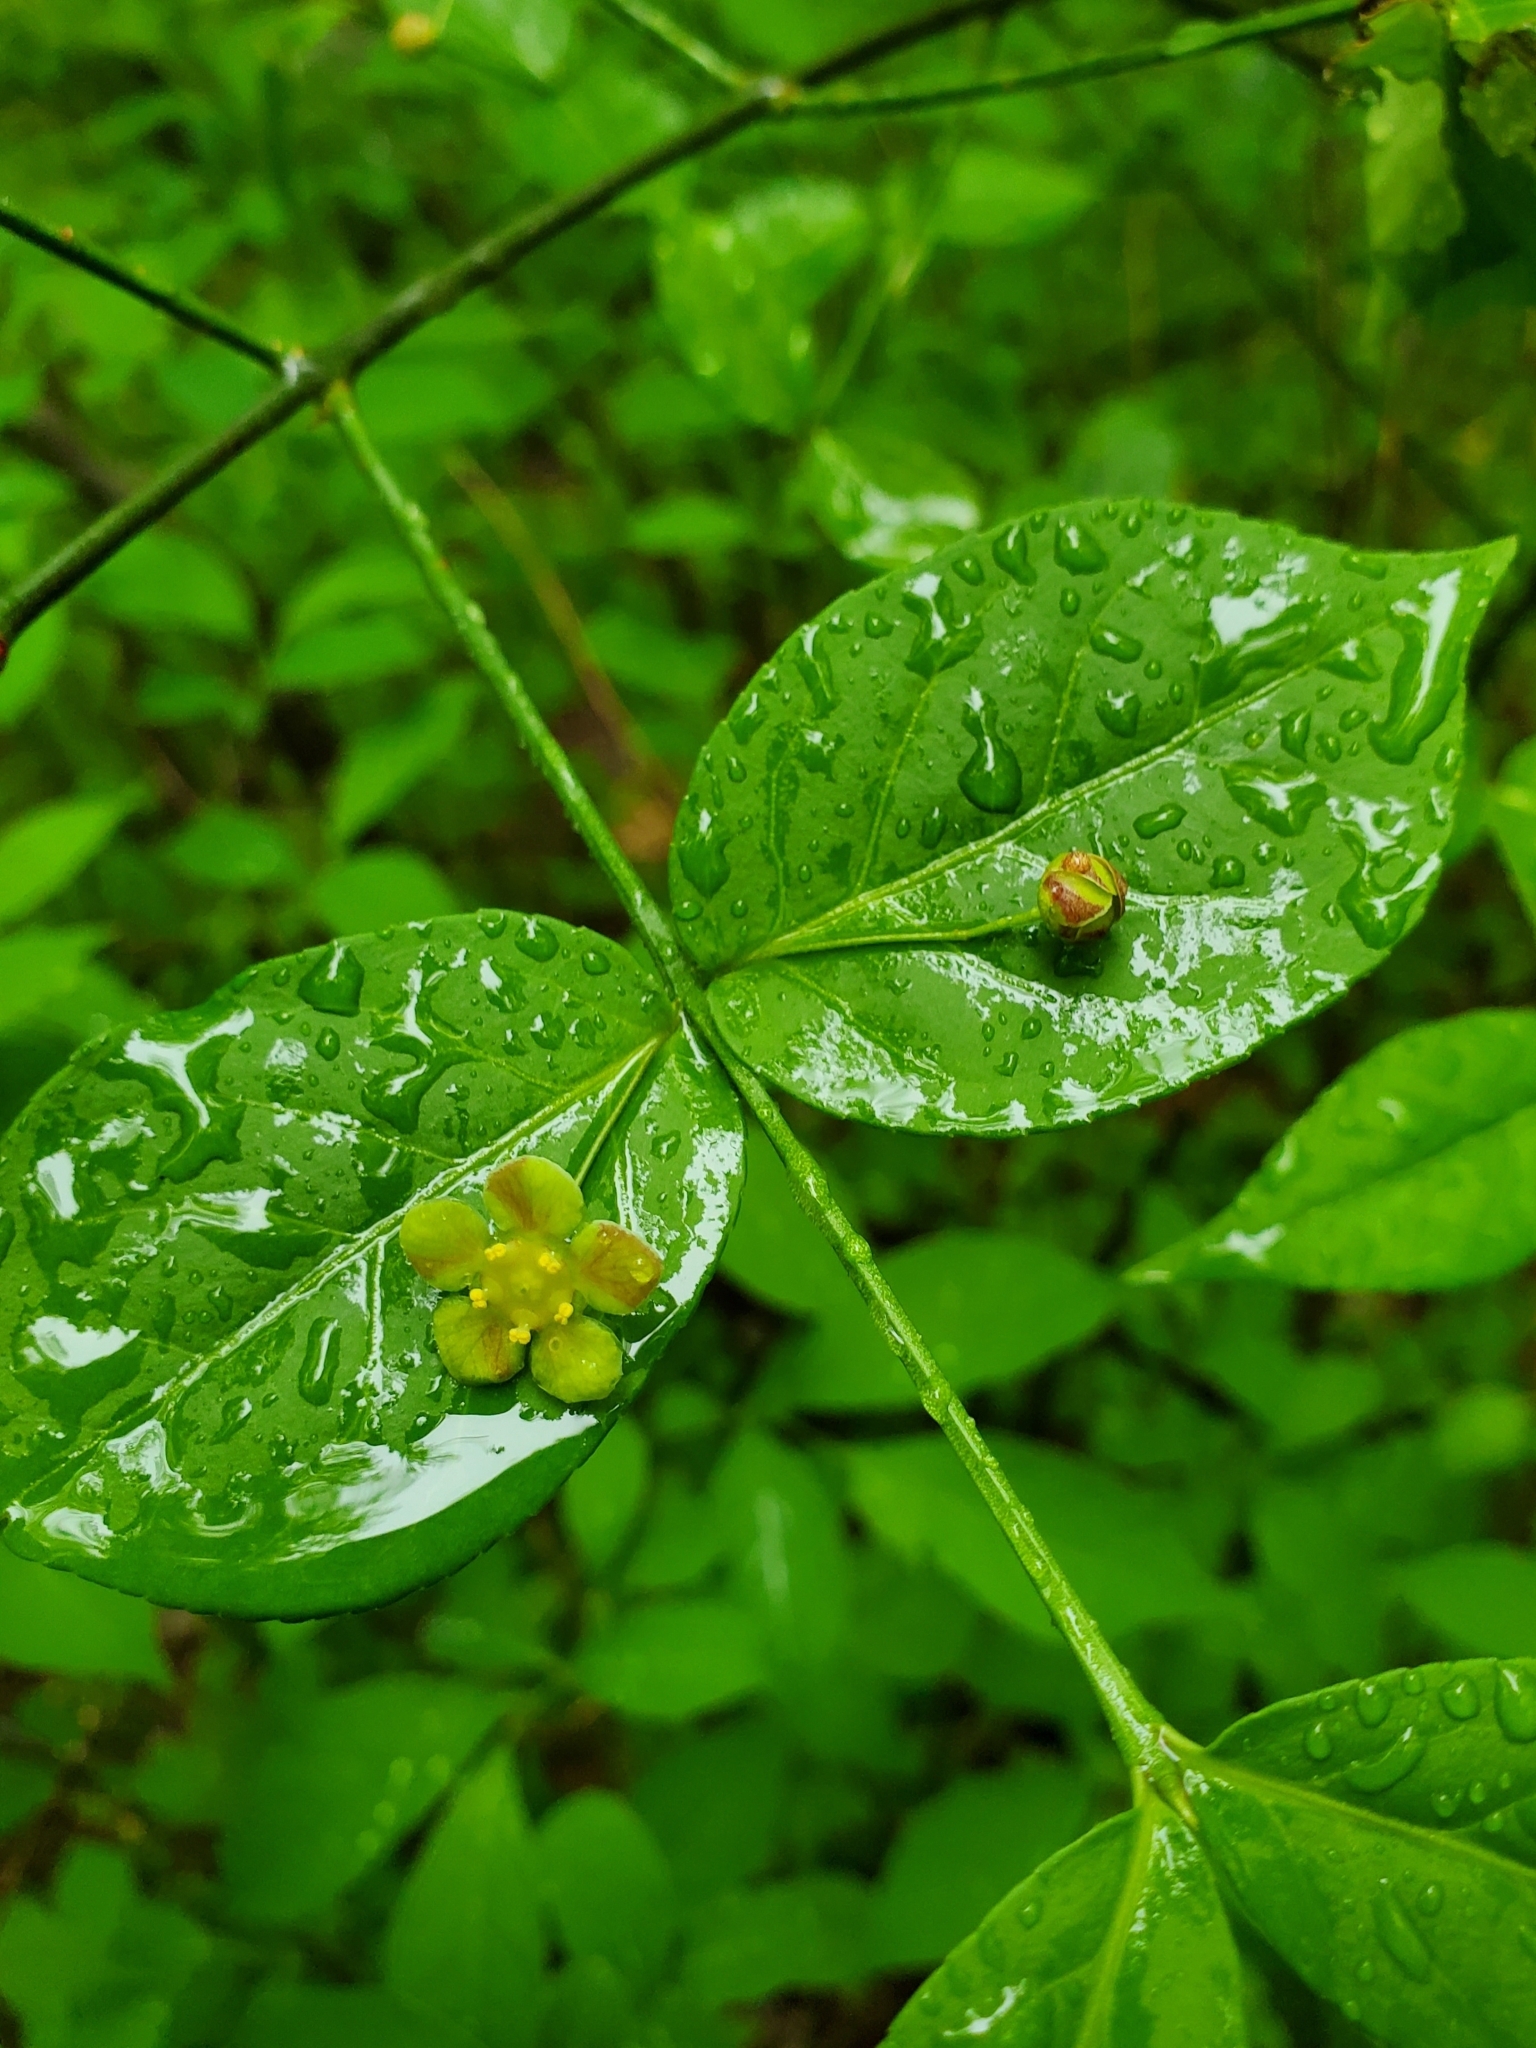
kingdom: Plantae
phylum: Tracheophyta
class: Magnoliopsida
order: Celastrales
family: Celastraceae
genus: Euonymus
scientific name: Euonymus americanus
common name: Bursting-heart
